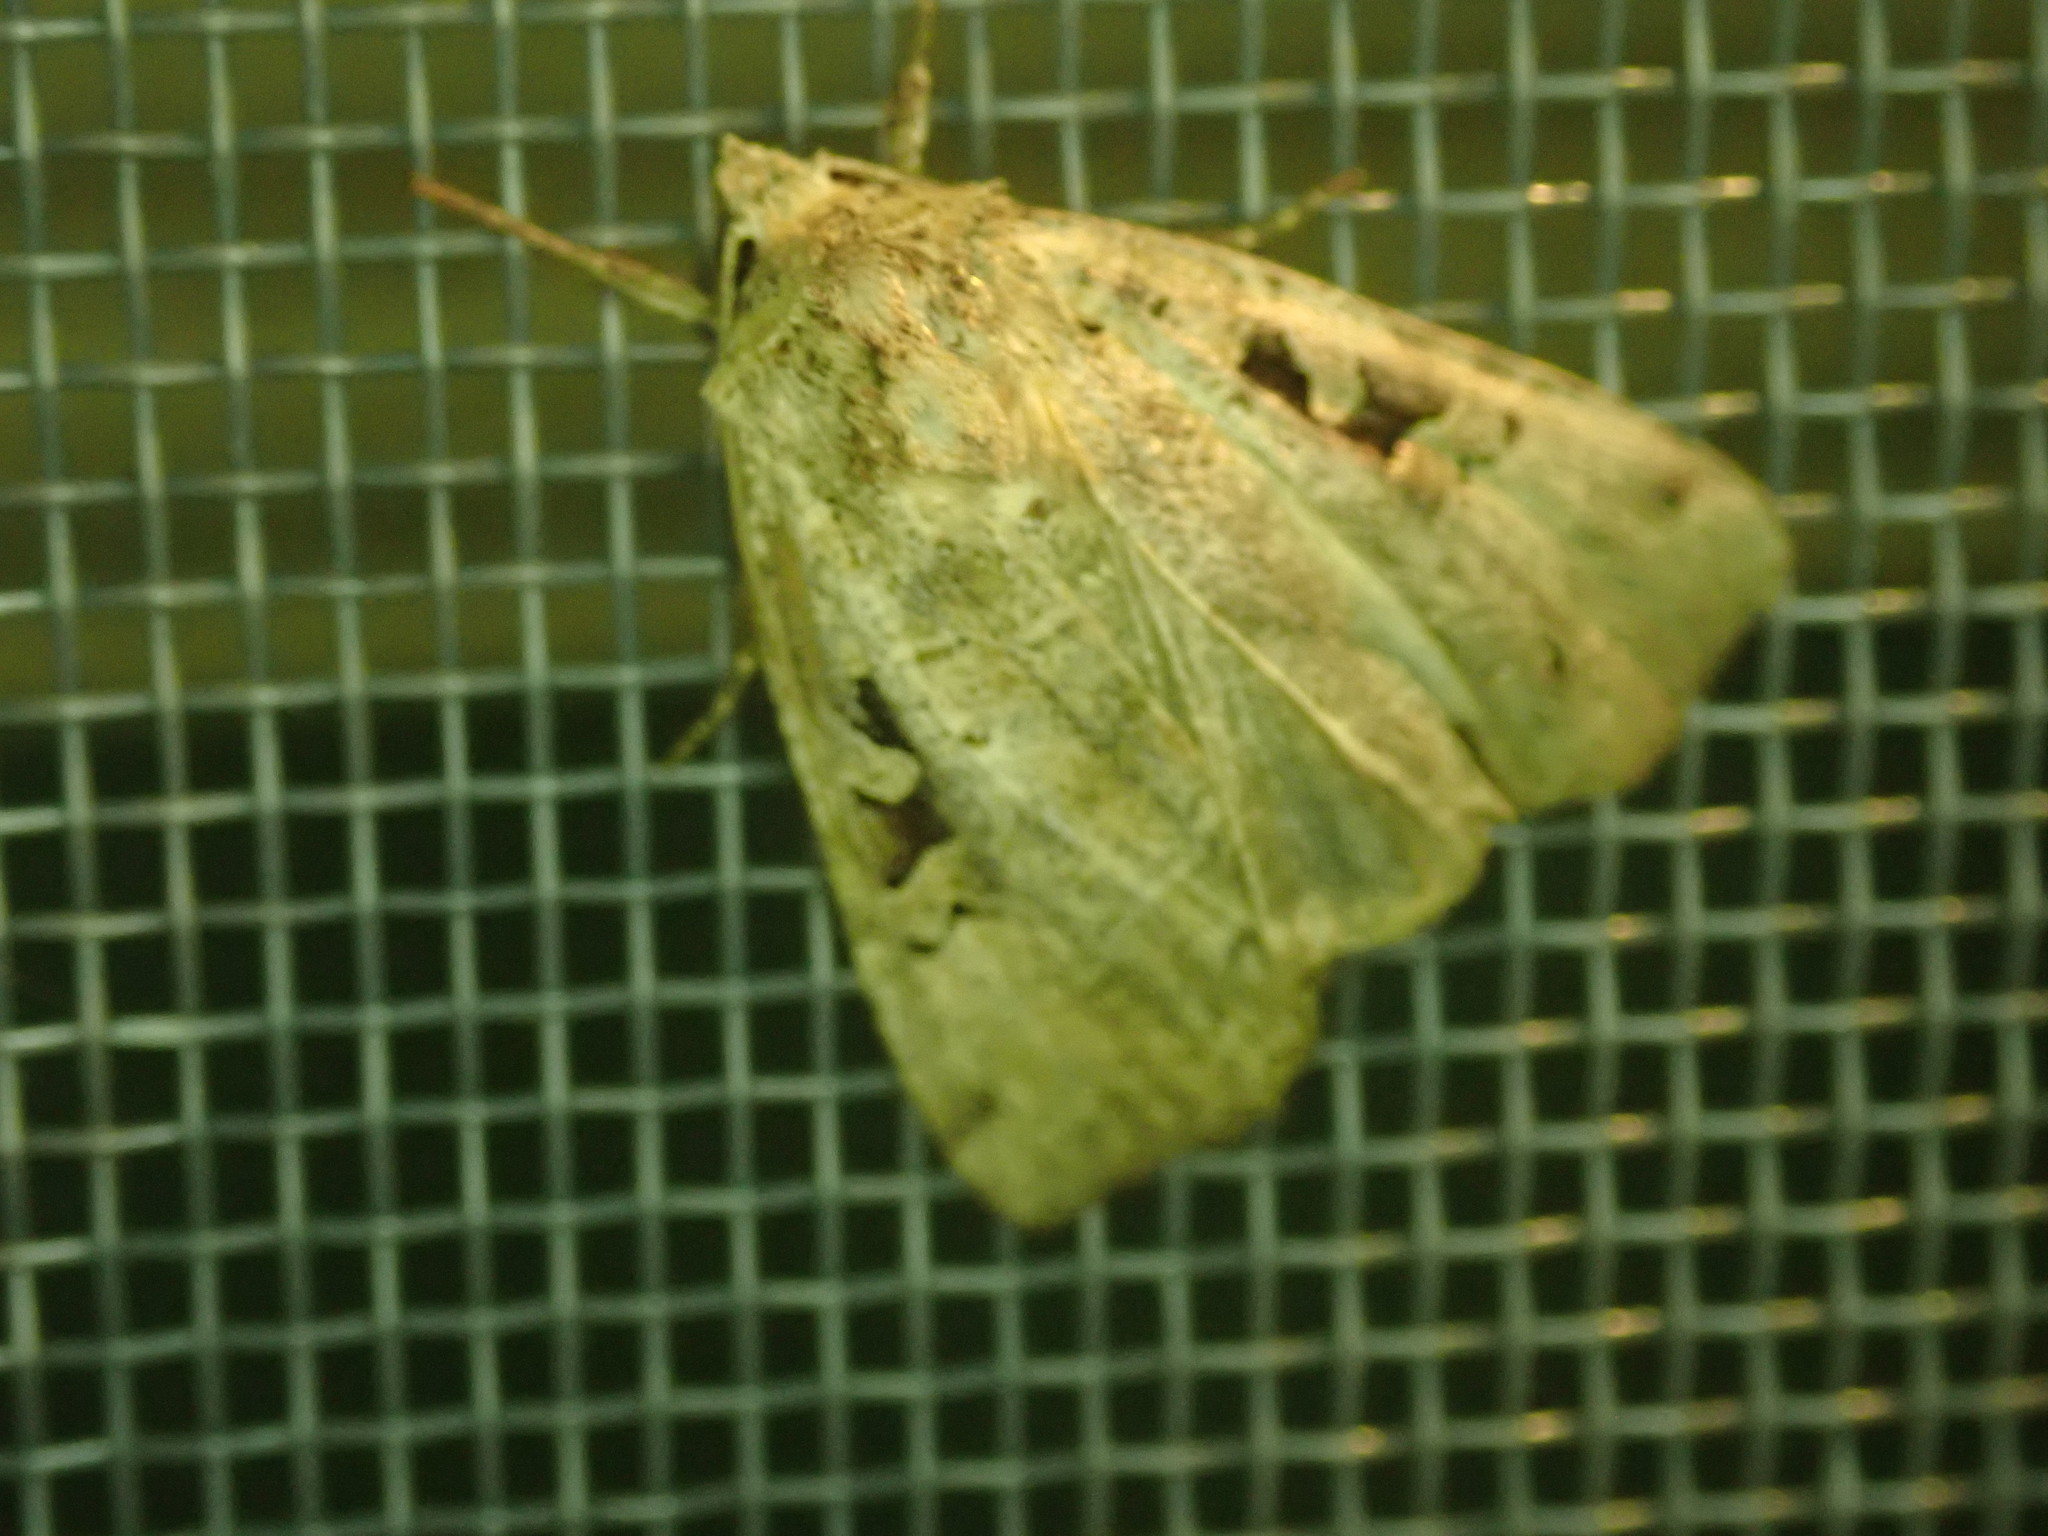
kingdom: Animalia
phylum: Arthropoda
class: Insecta
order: Lepidoptera
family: Noctuidae
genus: Xestia
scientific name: Xestia normaniana
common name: Norman's dart moth
